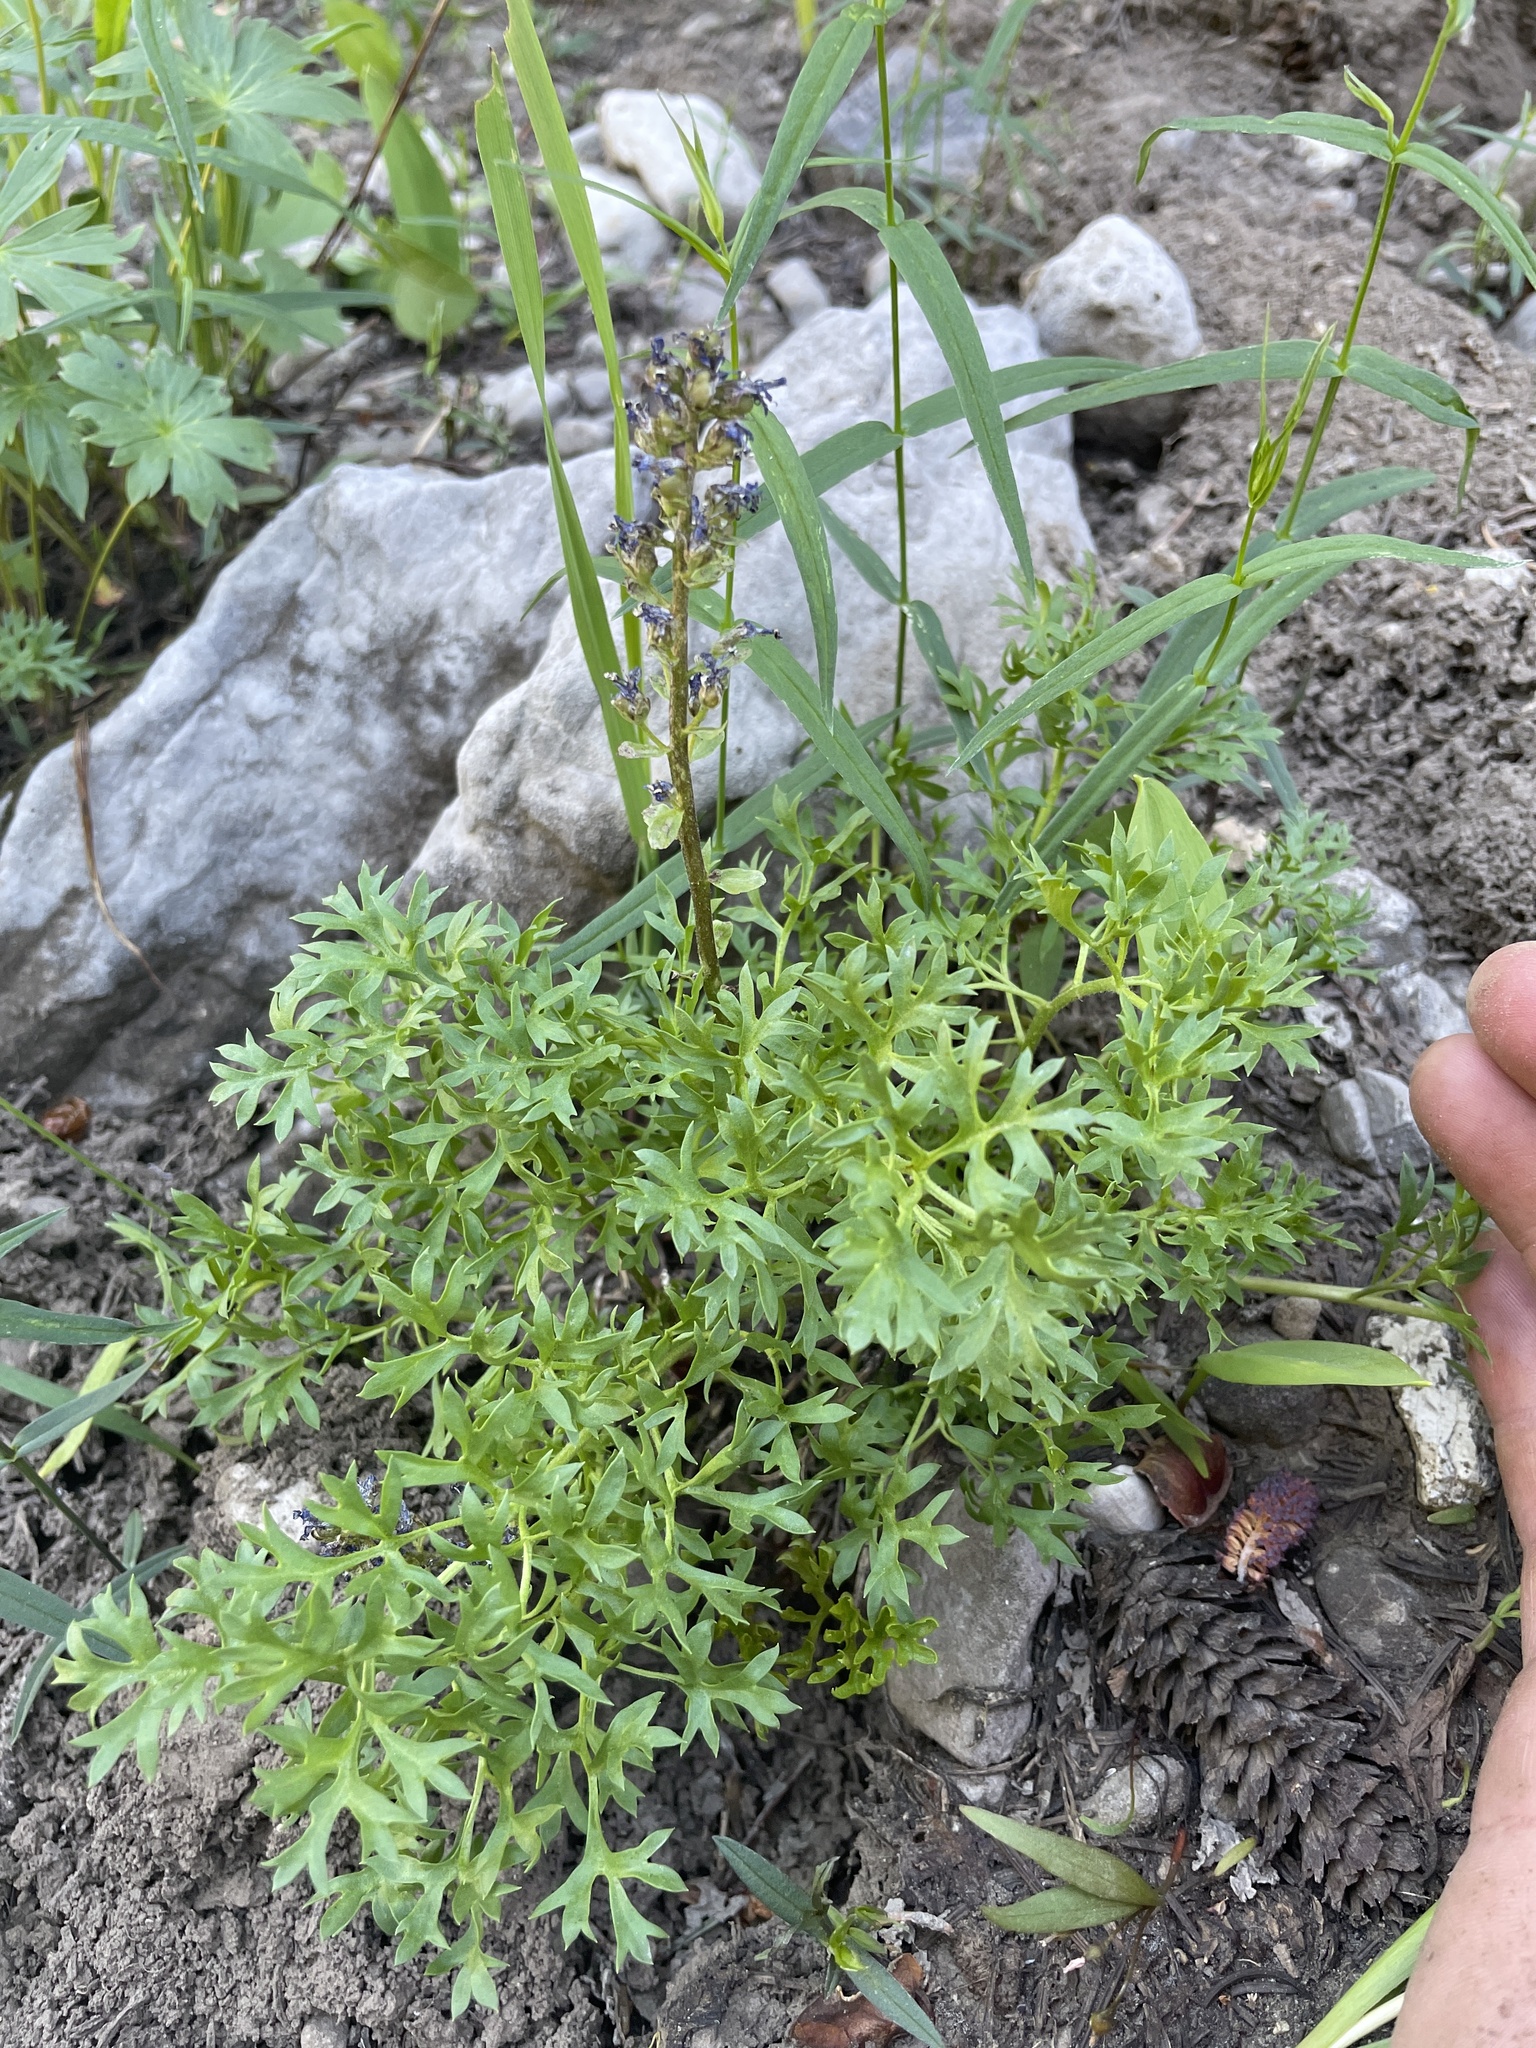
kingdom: Plantae
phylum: Tracheophyta
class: Magnoliopsida
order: Lamiales
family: Plantaginaceae
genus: Synthyris
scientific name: Synthyris pinnatifida
